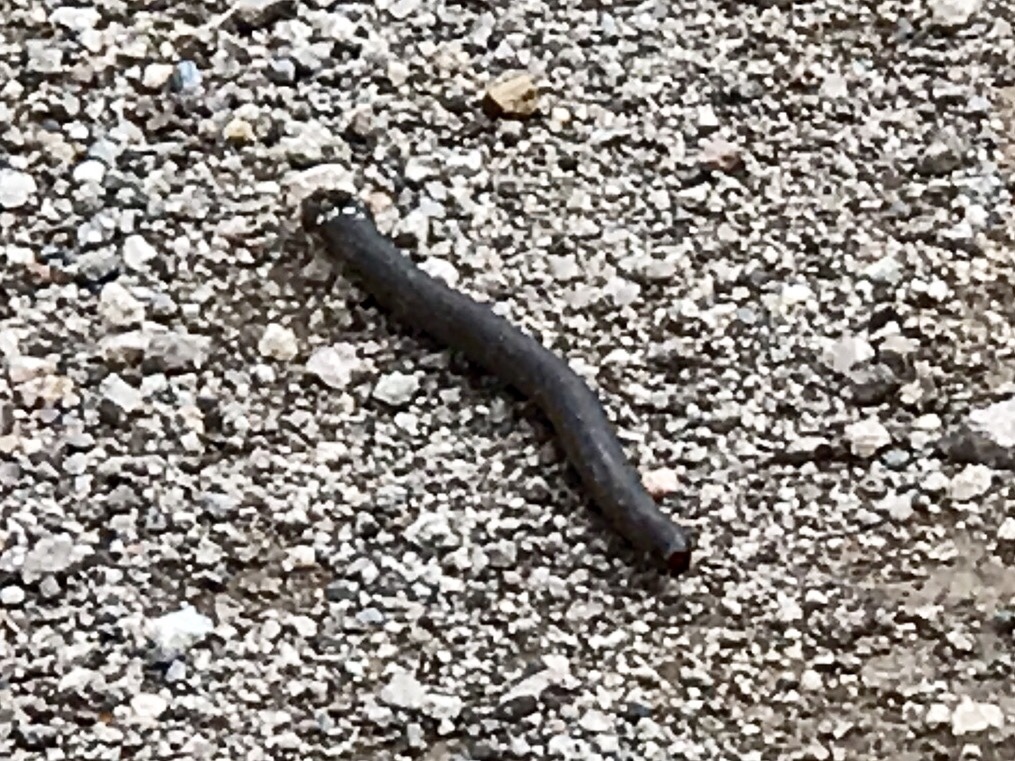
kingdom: Animalia
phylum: Arthropoda
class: Diplopoda
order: Spirostreptida
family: Spirostreptidae
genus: Orthoporus
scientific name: Orthoporus ornatus
